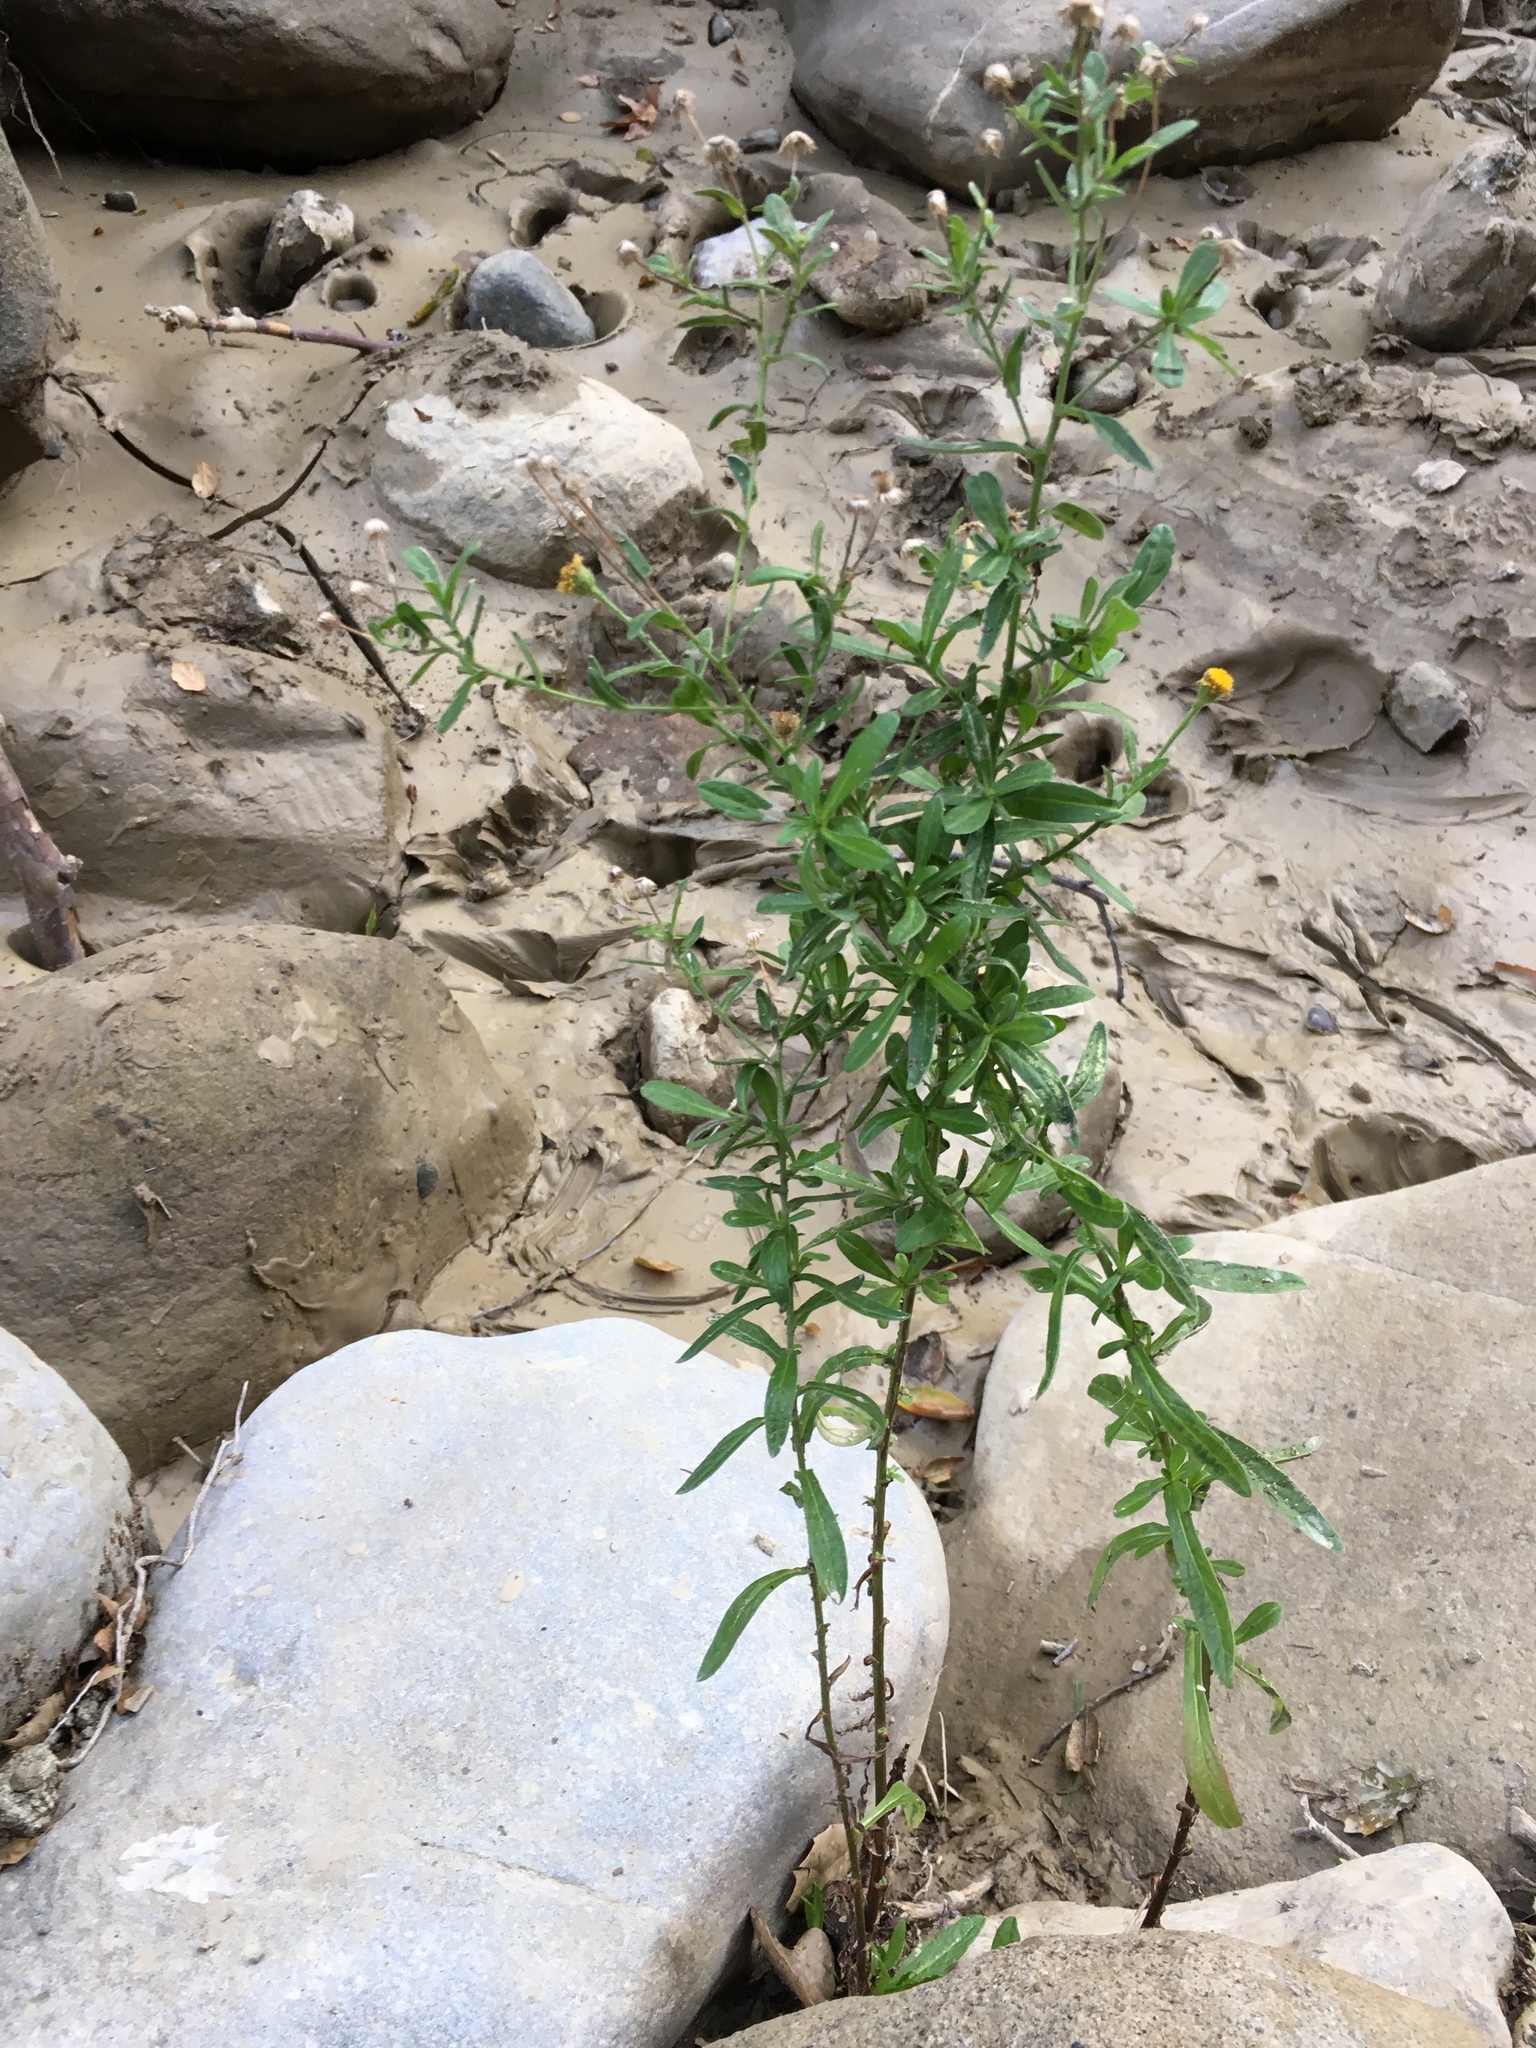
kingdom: Plantae
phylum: Tracheophyta
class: Magnoliopsida
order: Asterales
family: Asteraceae
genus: Pulicaria
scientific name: Pulicaria paludosa
